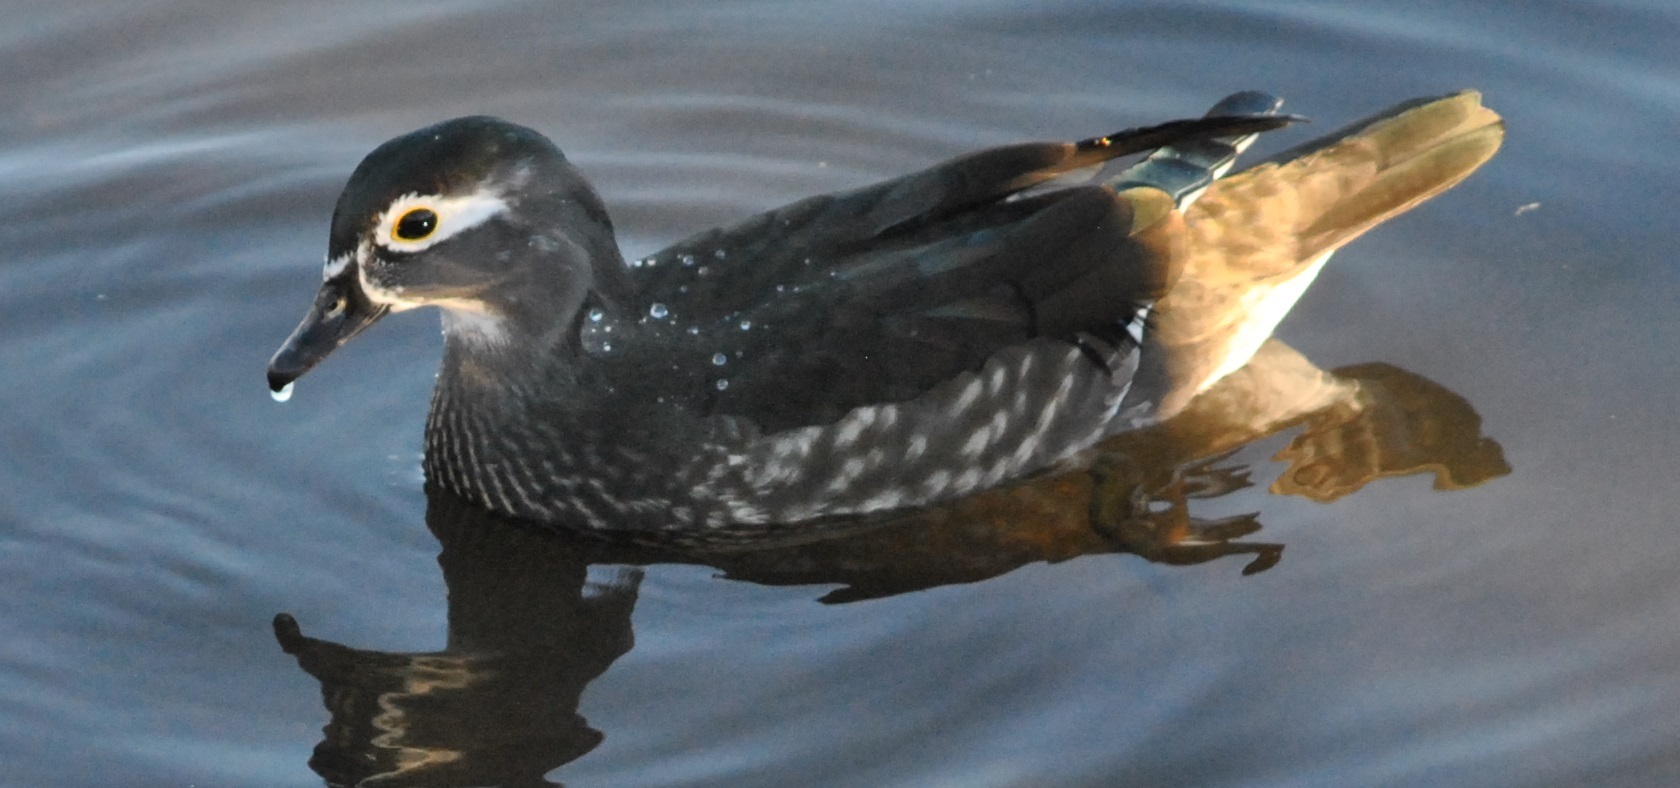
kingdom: Animalia
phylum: Chordata
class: Aves
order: Anseriformes
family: Anatidae
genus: Aix
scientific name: Aix sponsa
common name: Wood duck
